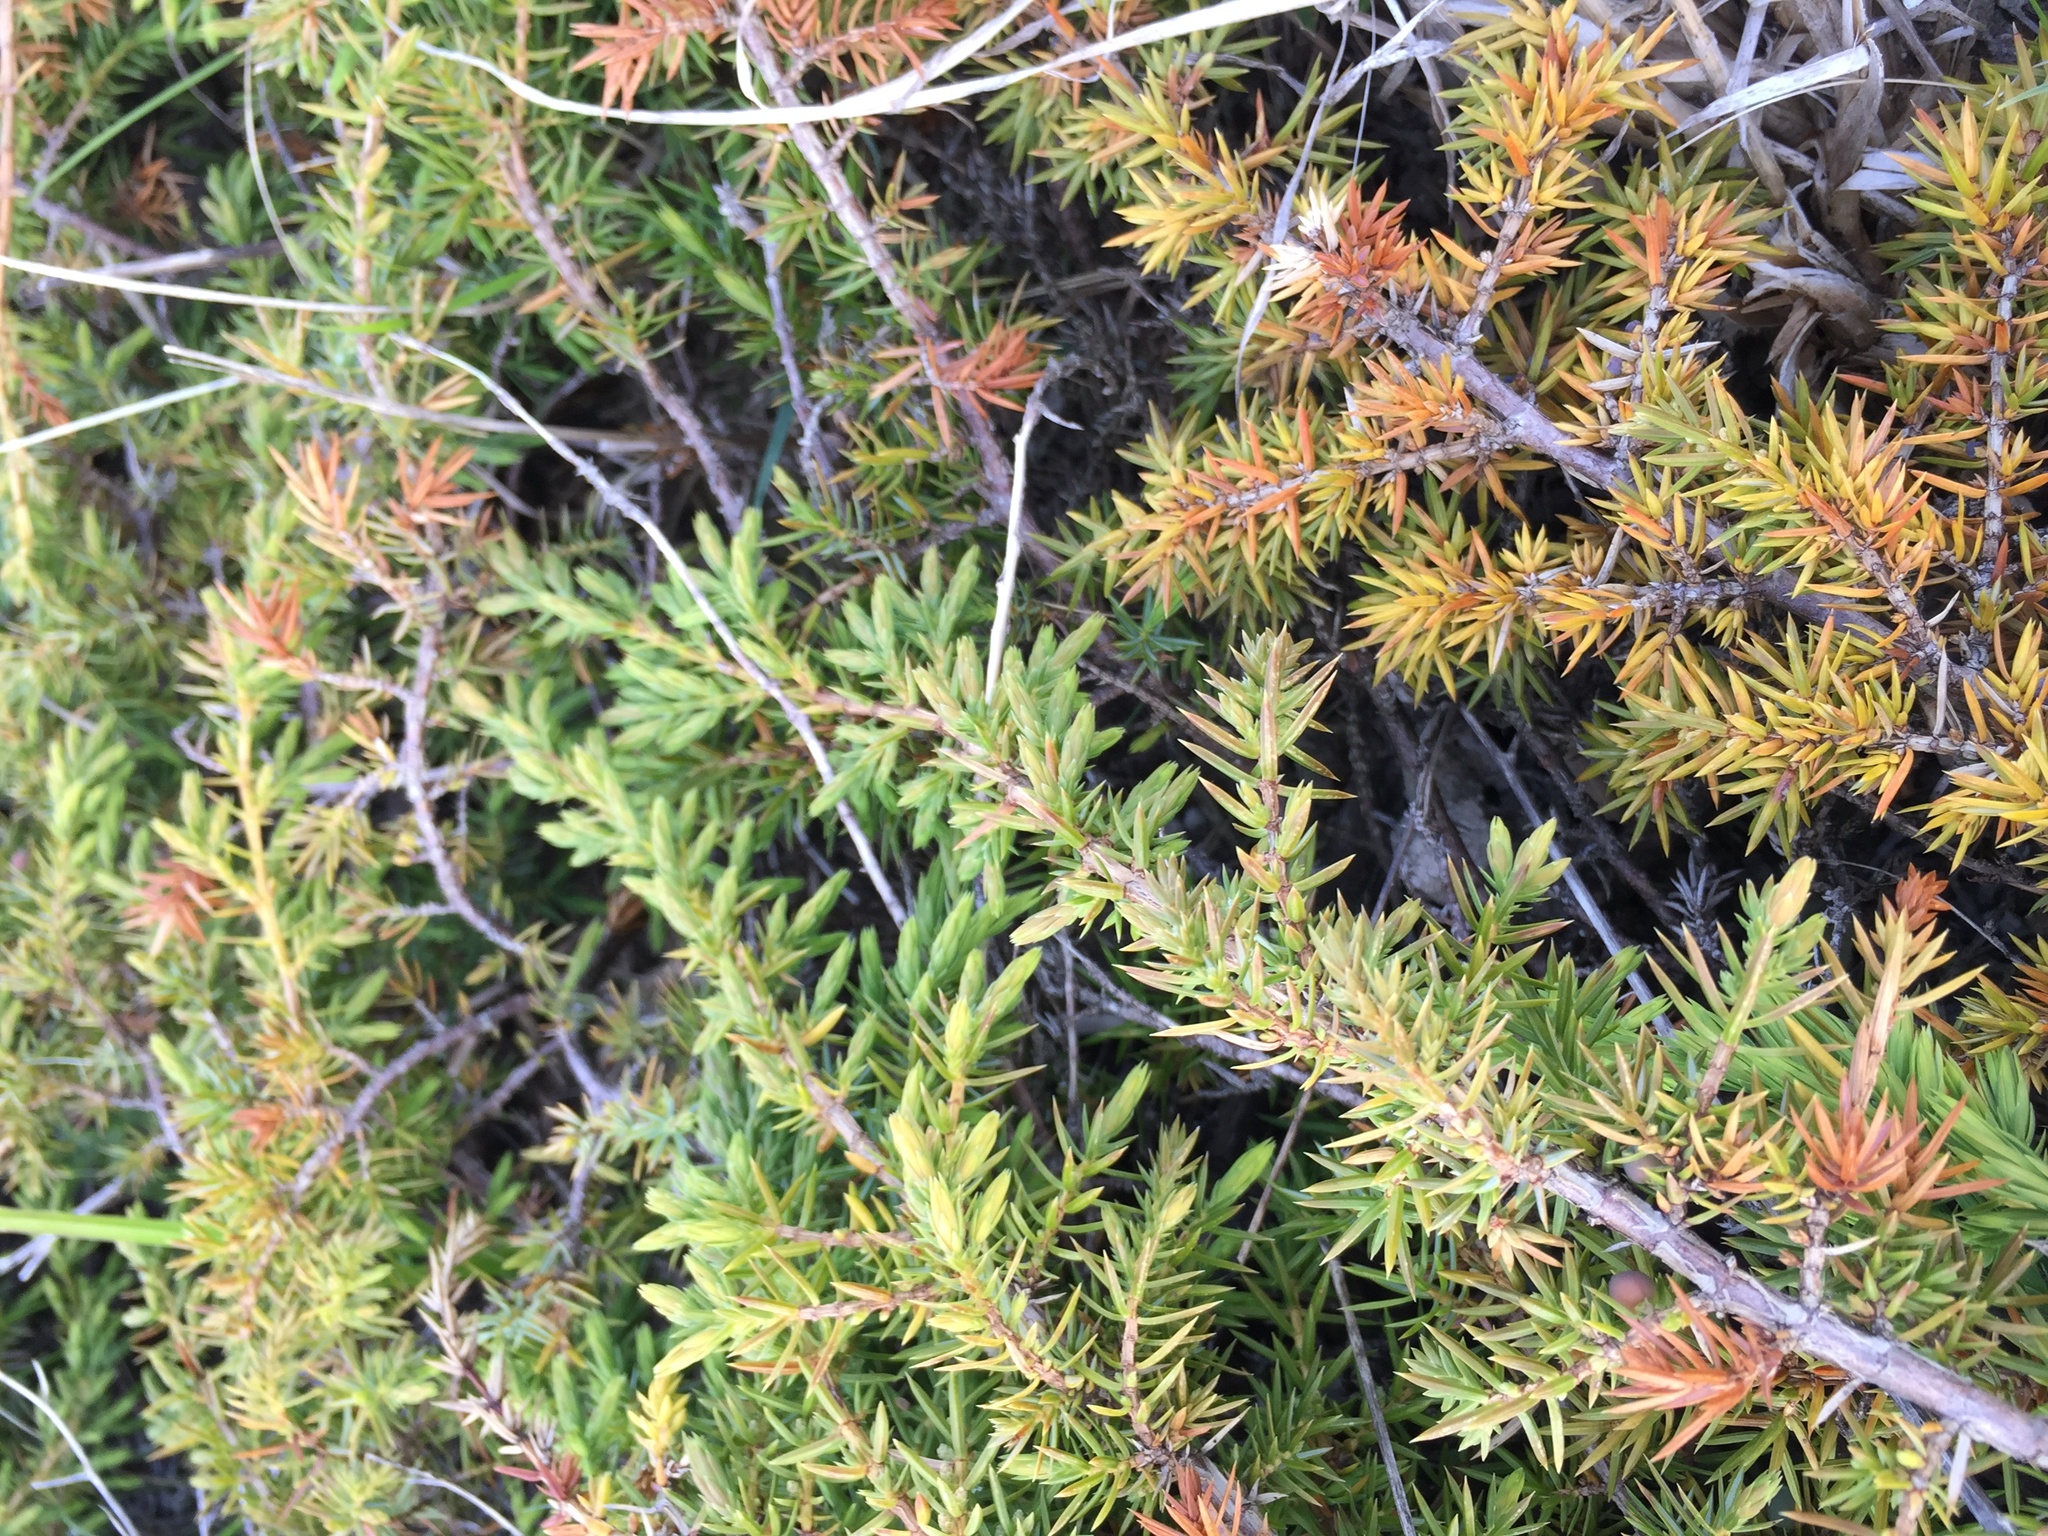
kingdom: Plantae
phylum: Tracheophyta
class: Pinopsida
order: Pinales
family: Cupressaceae
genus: Juniperus
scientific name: Juniperus communis
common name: Common juniper
